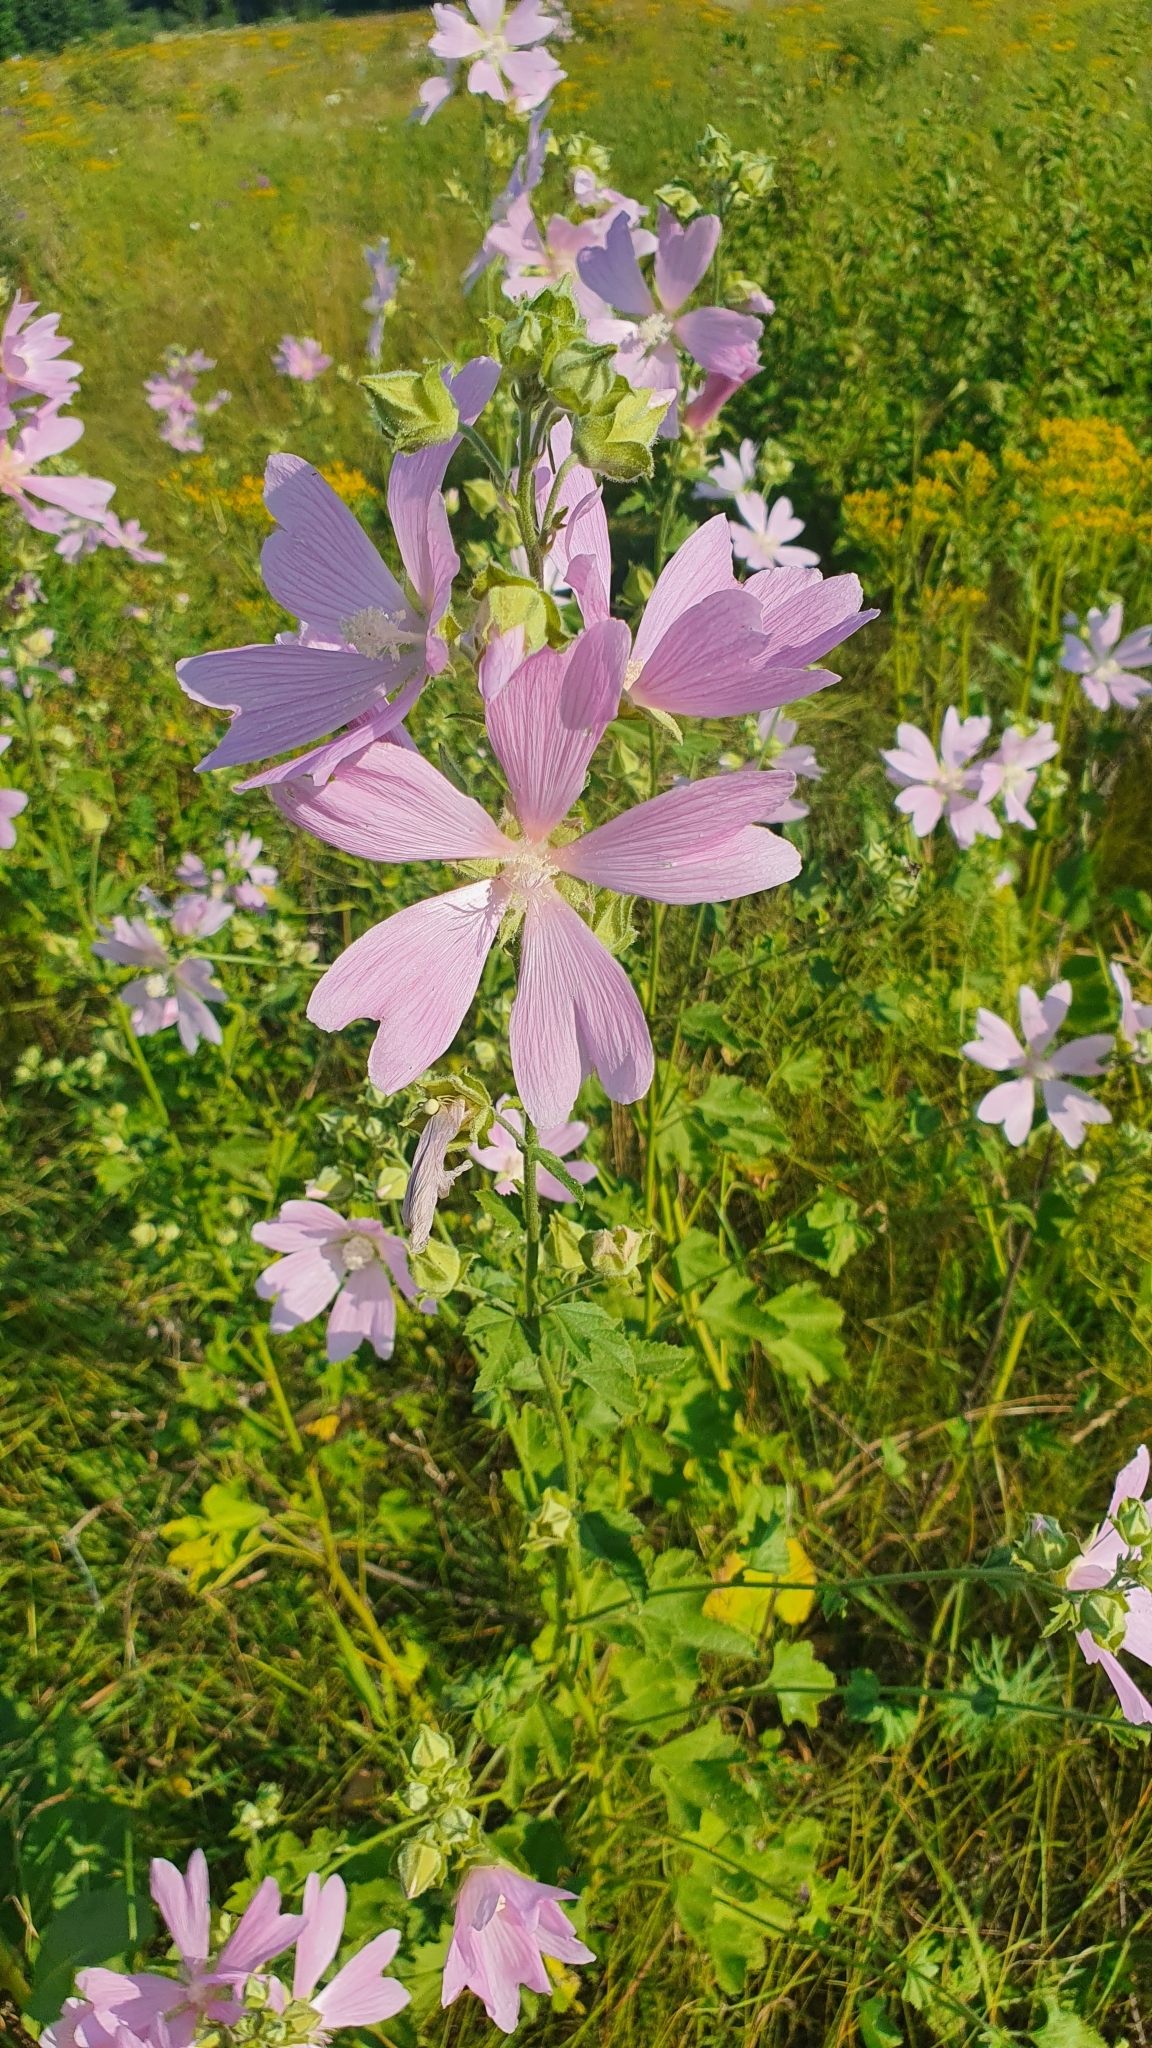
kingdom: Plantae
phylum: Tracheophyta
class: Magnoliopsida
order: Malvales
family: Malvaceae
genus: Malva
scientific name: Malva thuringiaca
